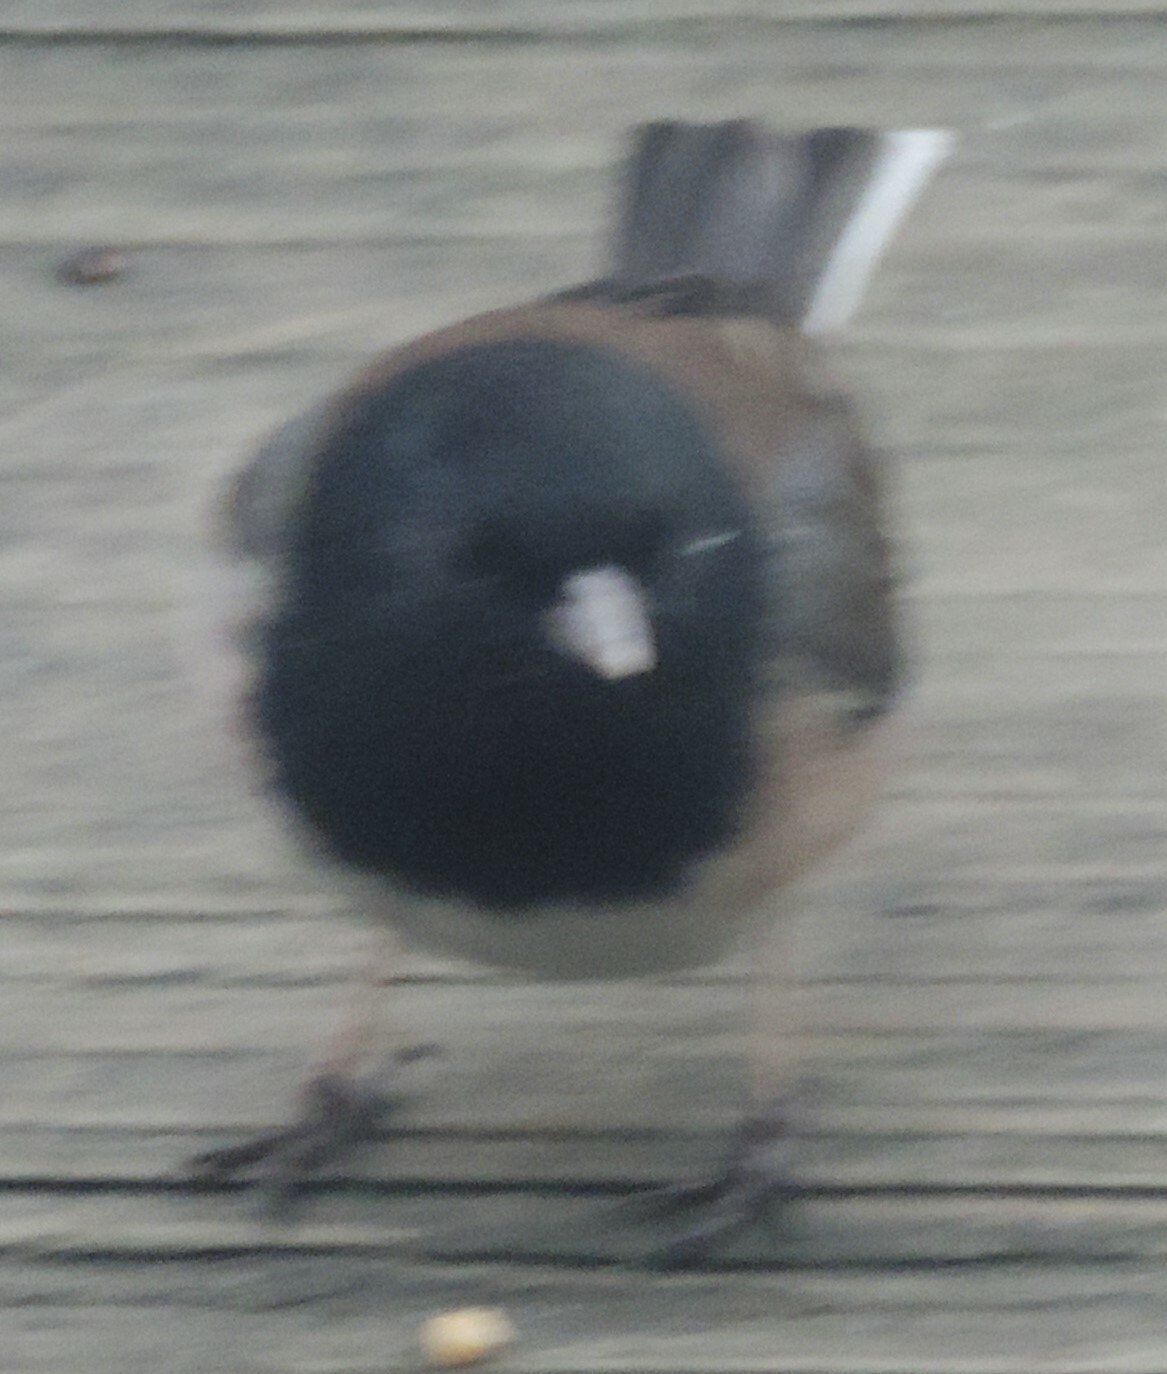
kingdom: Animalia
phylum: Chordata
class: Aves
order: Passeriformes
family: Passerellidae
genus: Junco
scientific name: Junco hyemalis
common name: Dark-eyed junco
